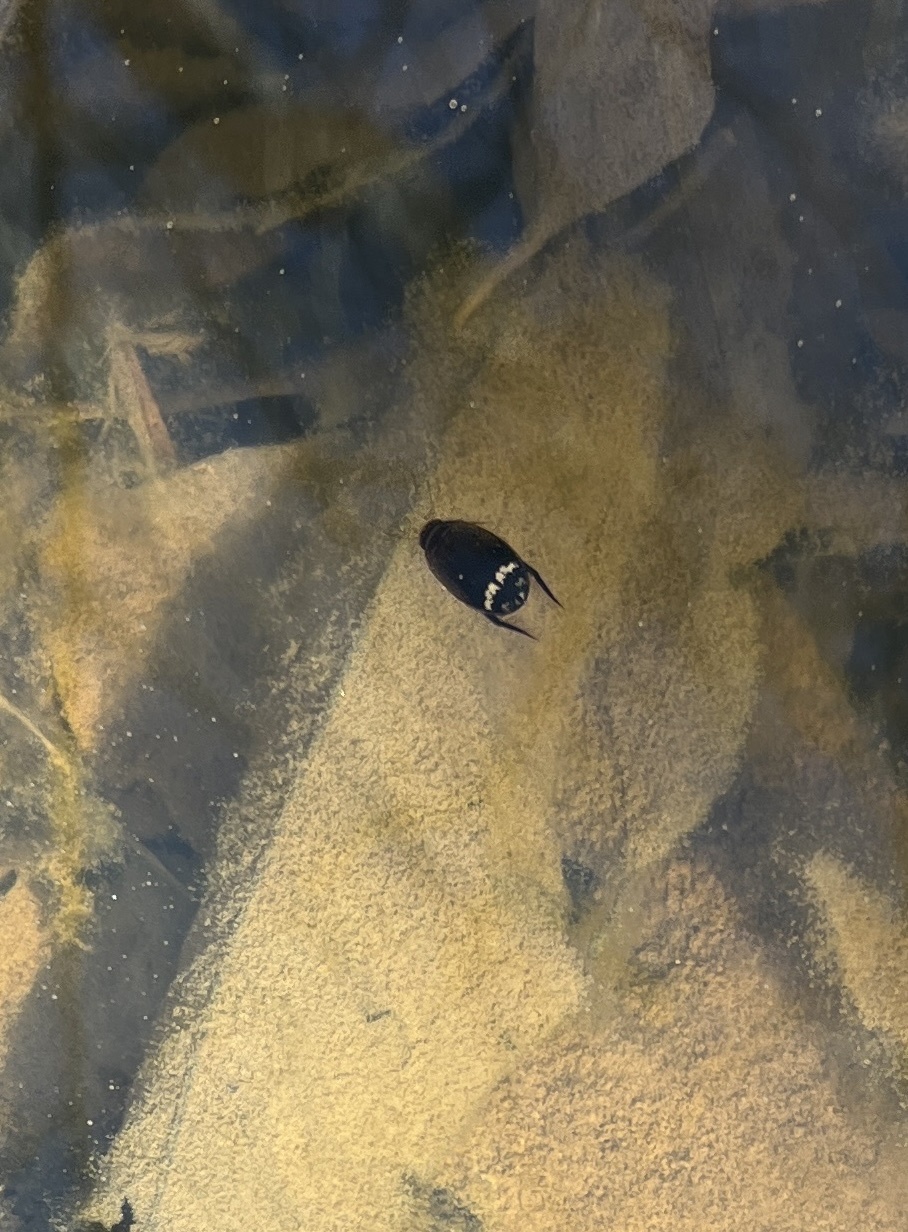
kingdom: Animalia
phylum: Arthropoda
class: Insecta
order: Coleoptera
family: Dytiscidae
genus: Acilius
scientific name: Acilius mediatus
